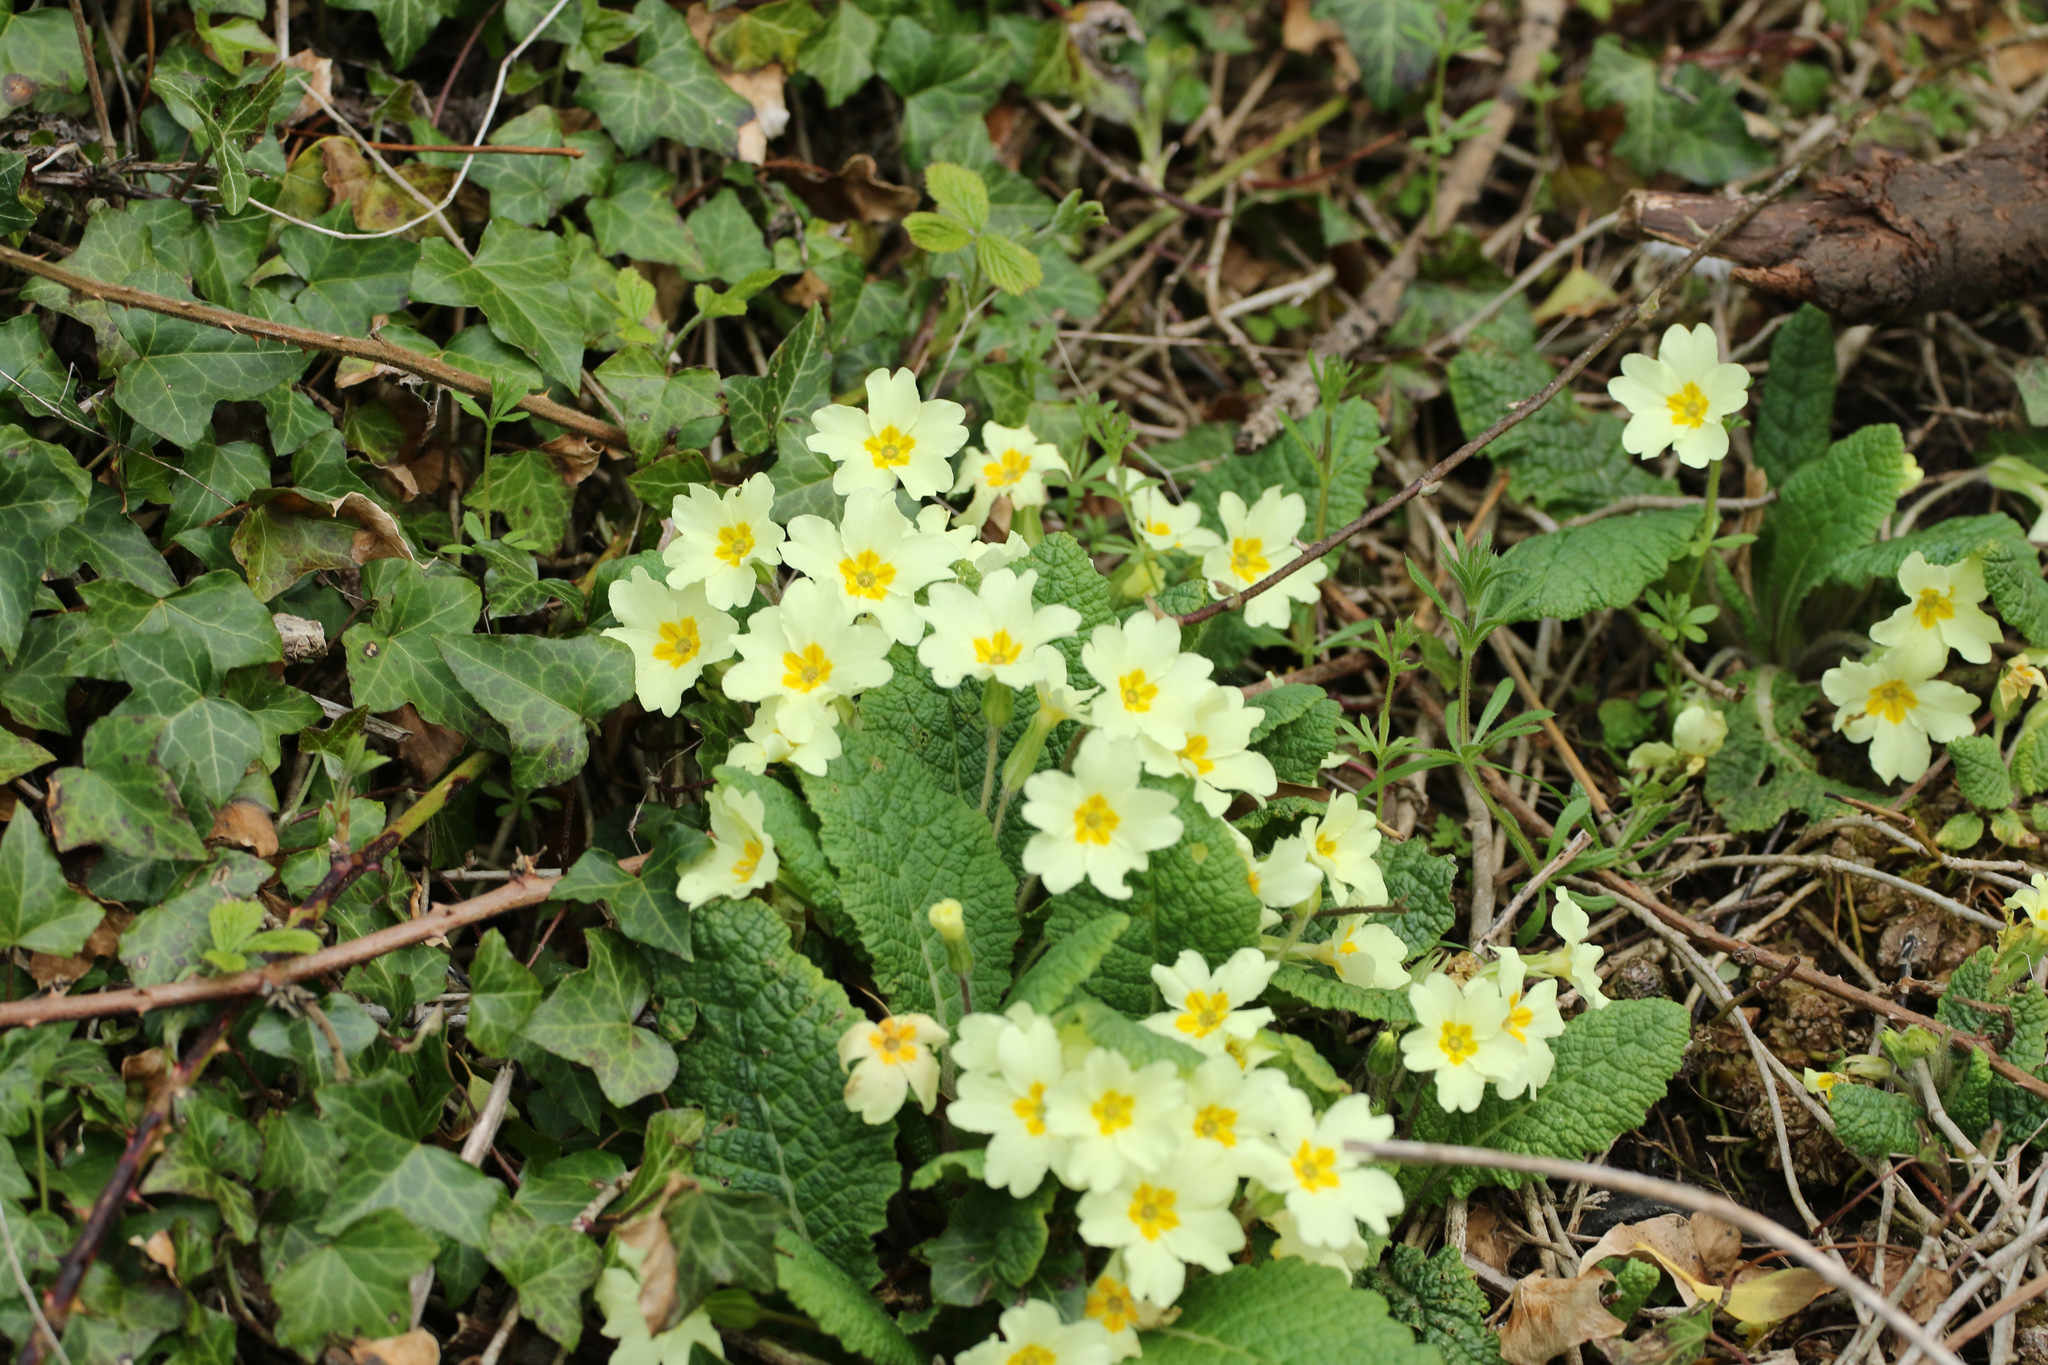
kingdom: Plantae
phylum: Tracheophyta
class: Magnoliopsida
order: Ericales
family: Primulaceae
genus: Primula
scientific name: Primula vulgaris
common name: Primrose
